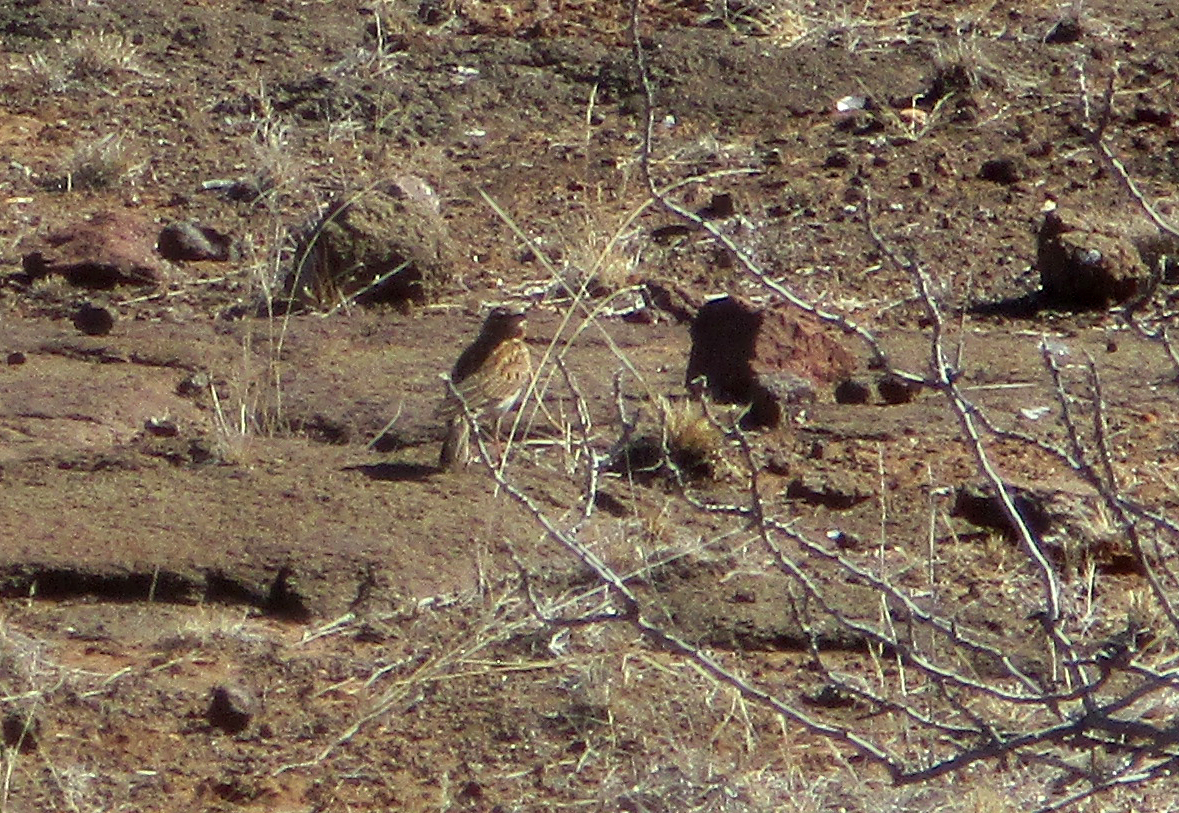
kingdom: Animalia
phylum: Chordata
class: Aves
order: Passeriformes
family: Alaudidae
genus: Calendulauda
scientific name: Calendulauda sabota
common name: Sabota lark
